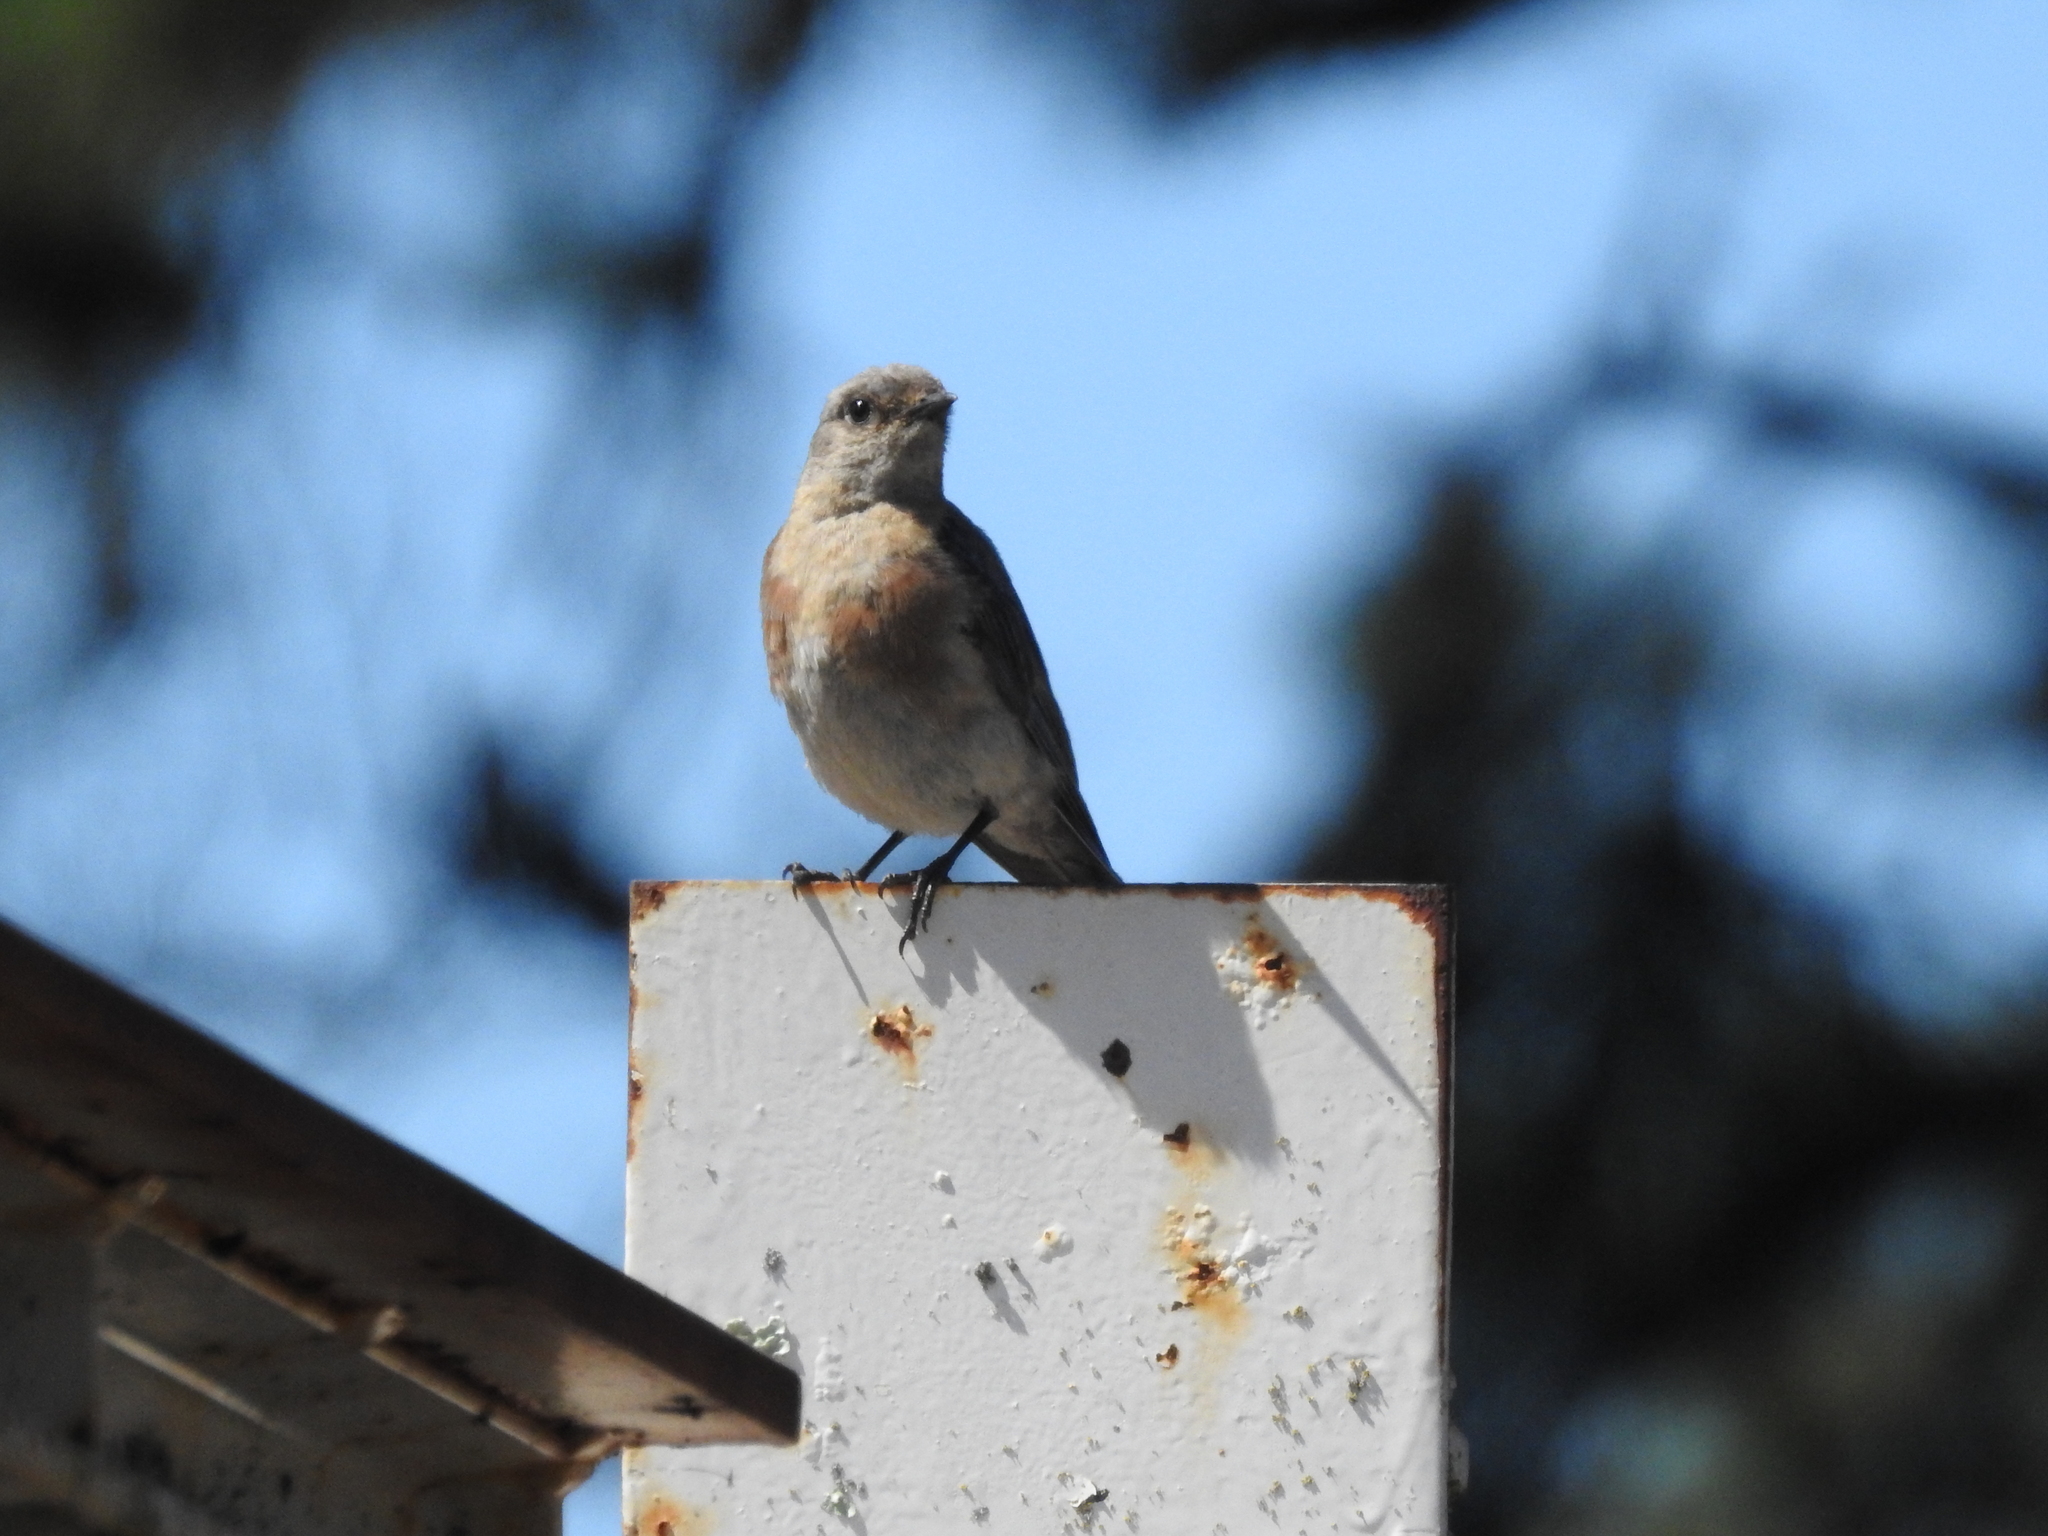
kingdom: Animalia
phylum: Chordata
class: Aves
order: Passeriformes
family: Turdidae
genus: Sialia
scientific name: Sialia mexicana
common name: Western bluebird
